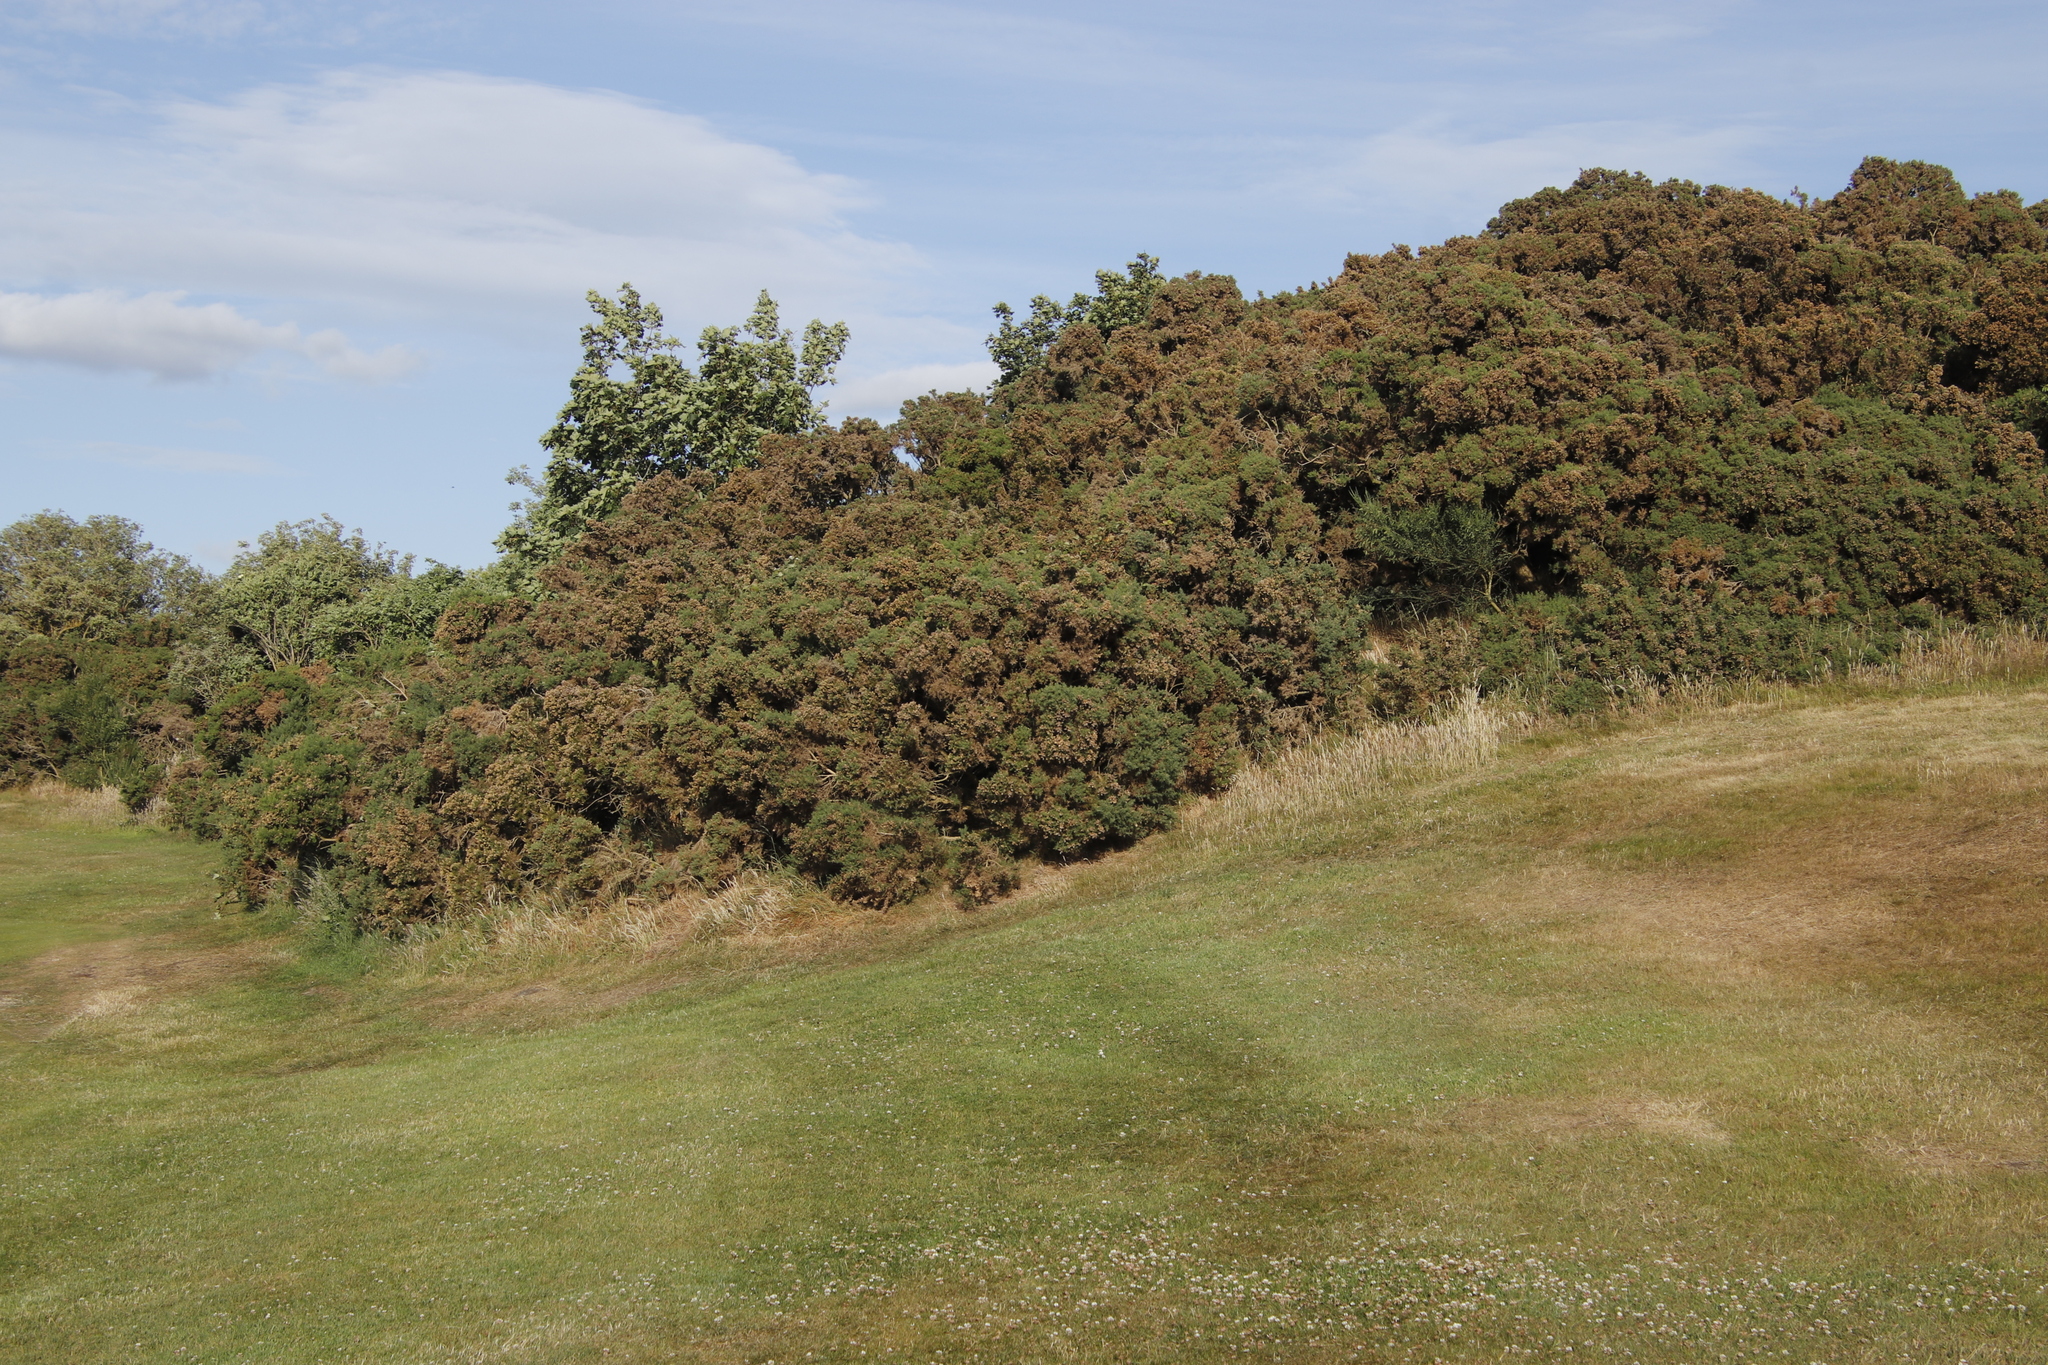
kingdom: Plantae
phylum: Tracheophyta
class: Magnoliopsida
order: Fabales
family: Fabaceae
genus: Ulex
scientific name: Ulex europaeus
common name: Common gorse
